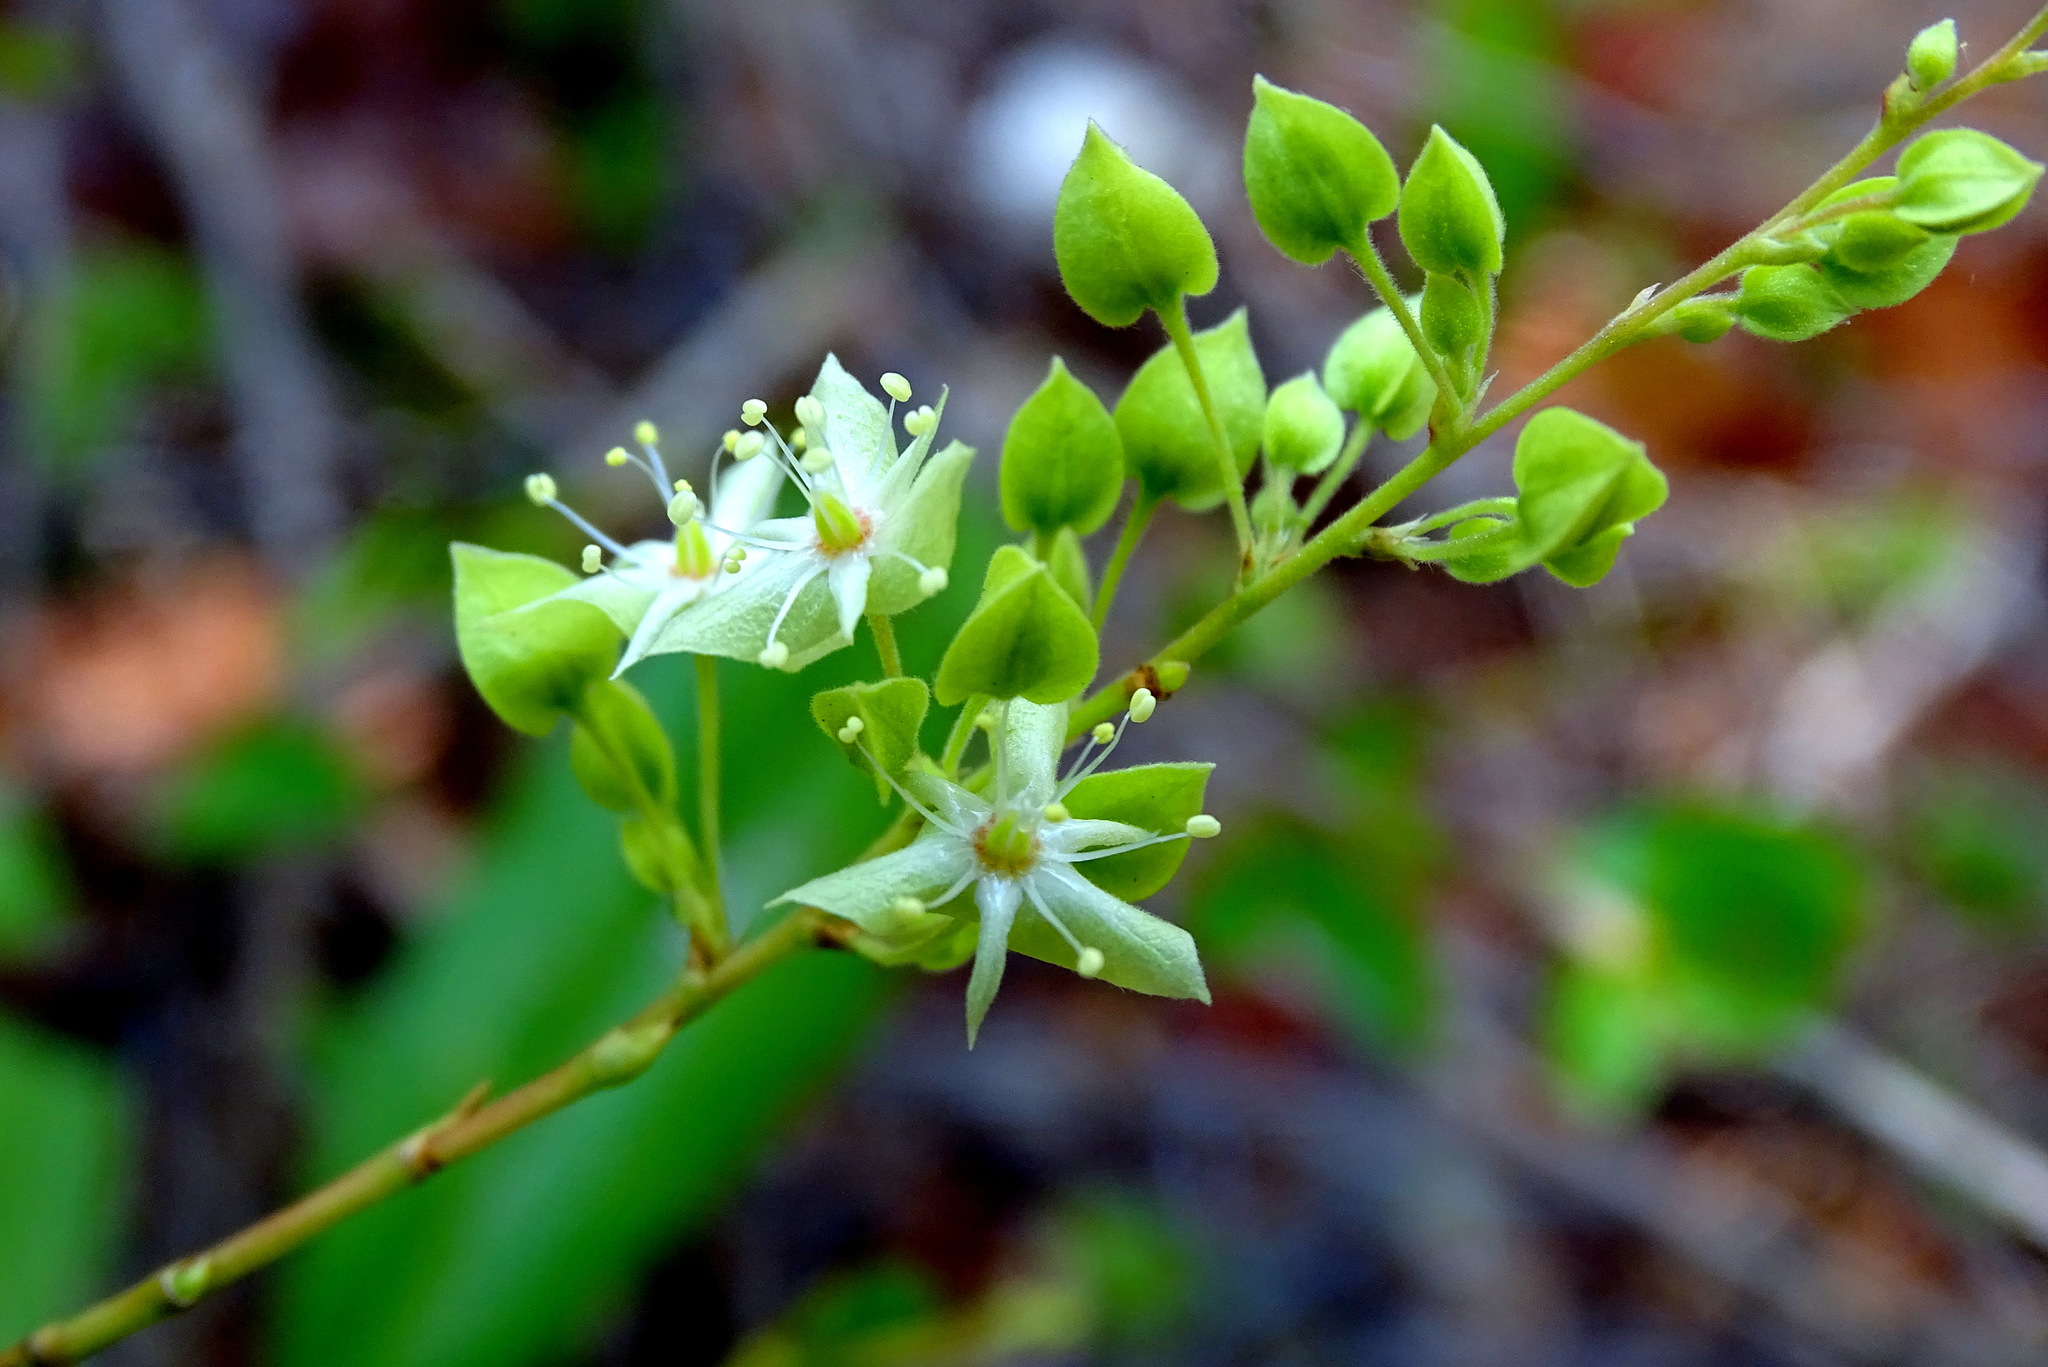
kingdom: Plantae
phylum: Tracheophyta
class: Magnoliopsida
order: Caryophyllales
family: Polygonaceae
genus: Gymnopodium
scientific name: Gymnopodium floribundum
